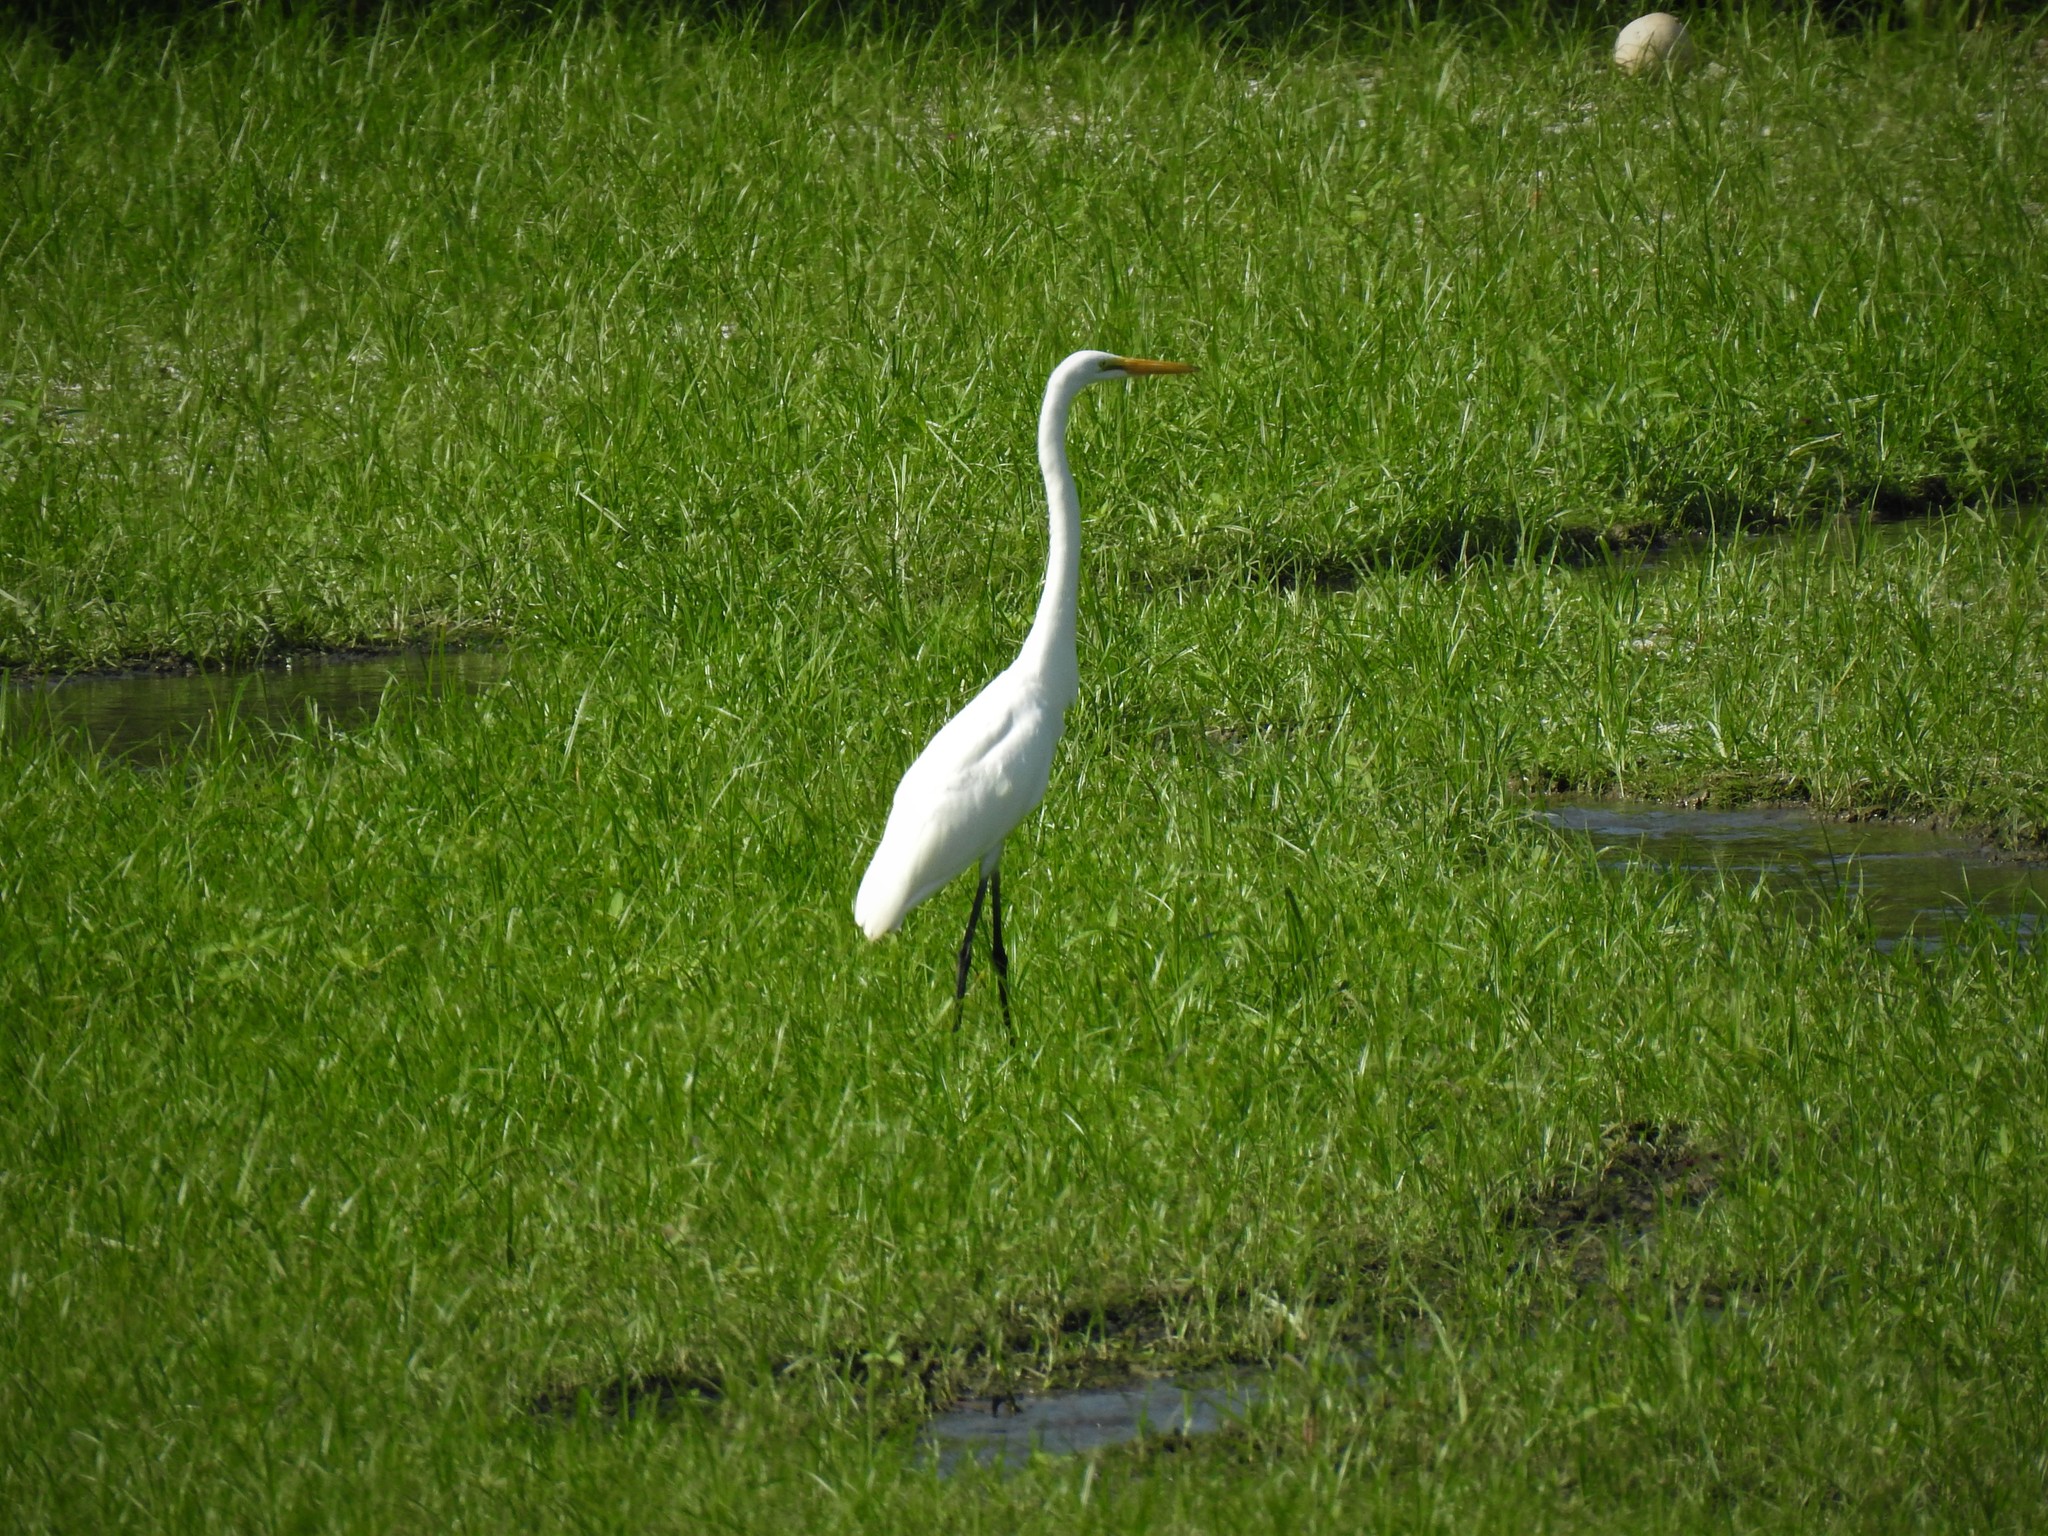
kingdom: Animalia
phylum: Chordata
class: Aves
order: Pelecaniformes
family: Ardeidae
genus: Ardea
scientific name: Ardea alba
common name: Great egret
